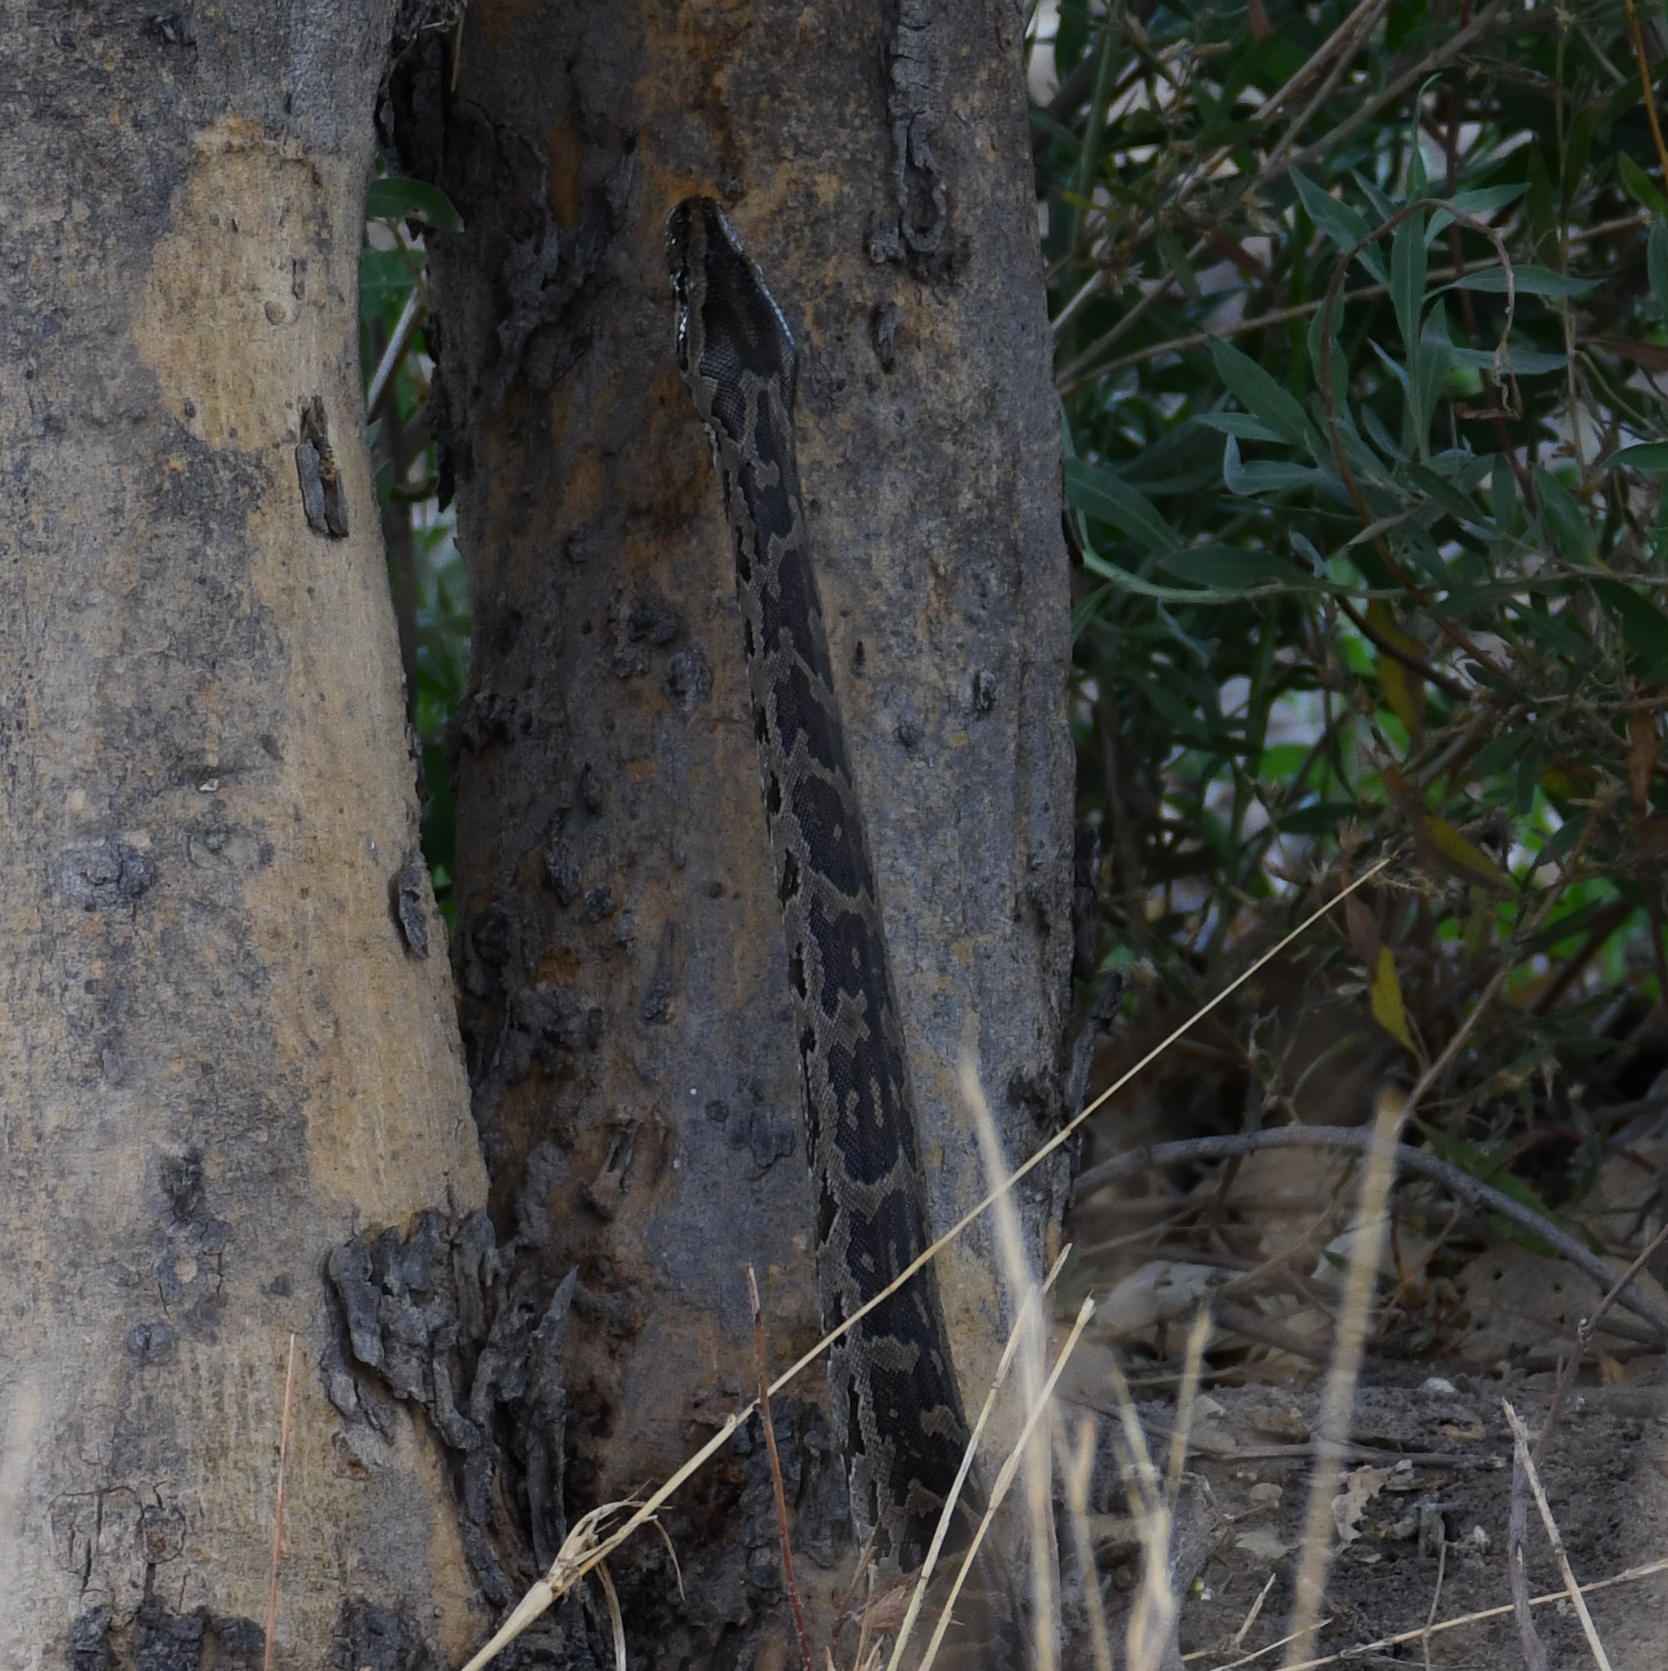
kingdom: Animalia
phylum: Chordata
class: Squamata
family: Pythonidae
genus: Python
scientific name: Python natalensis
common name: Southern african rock python
